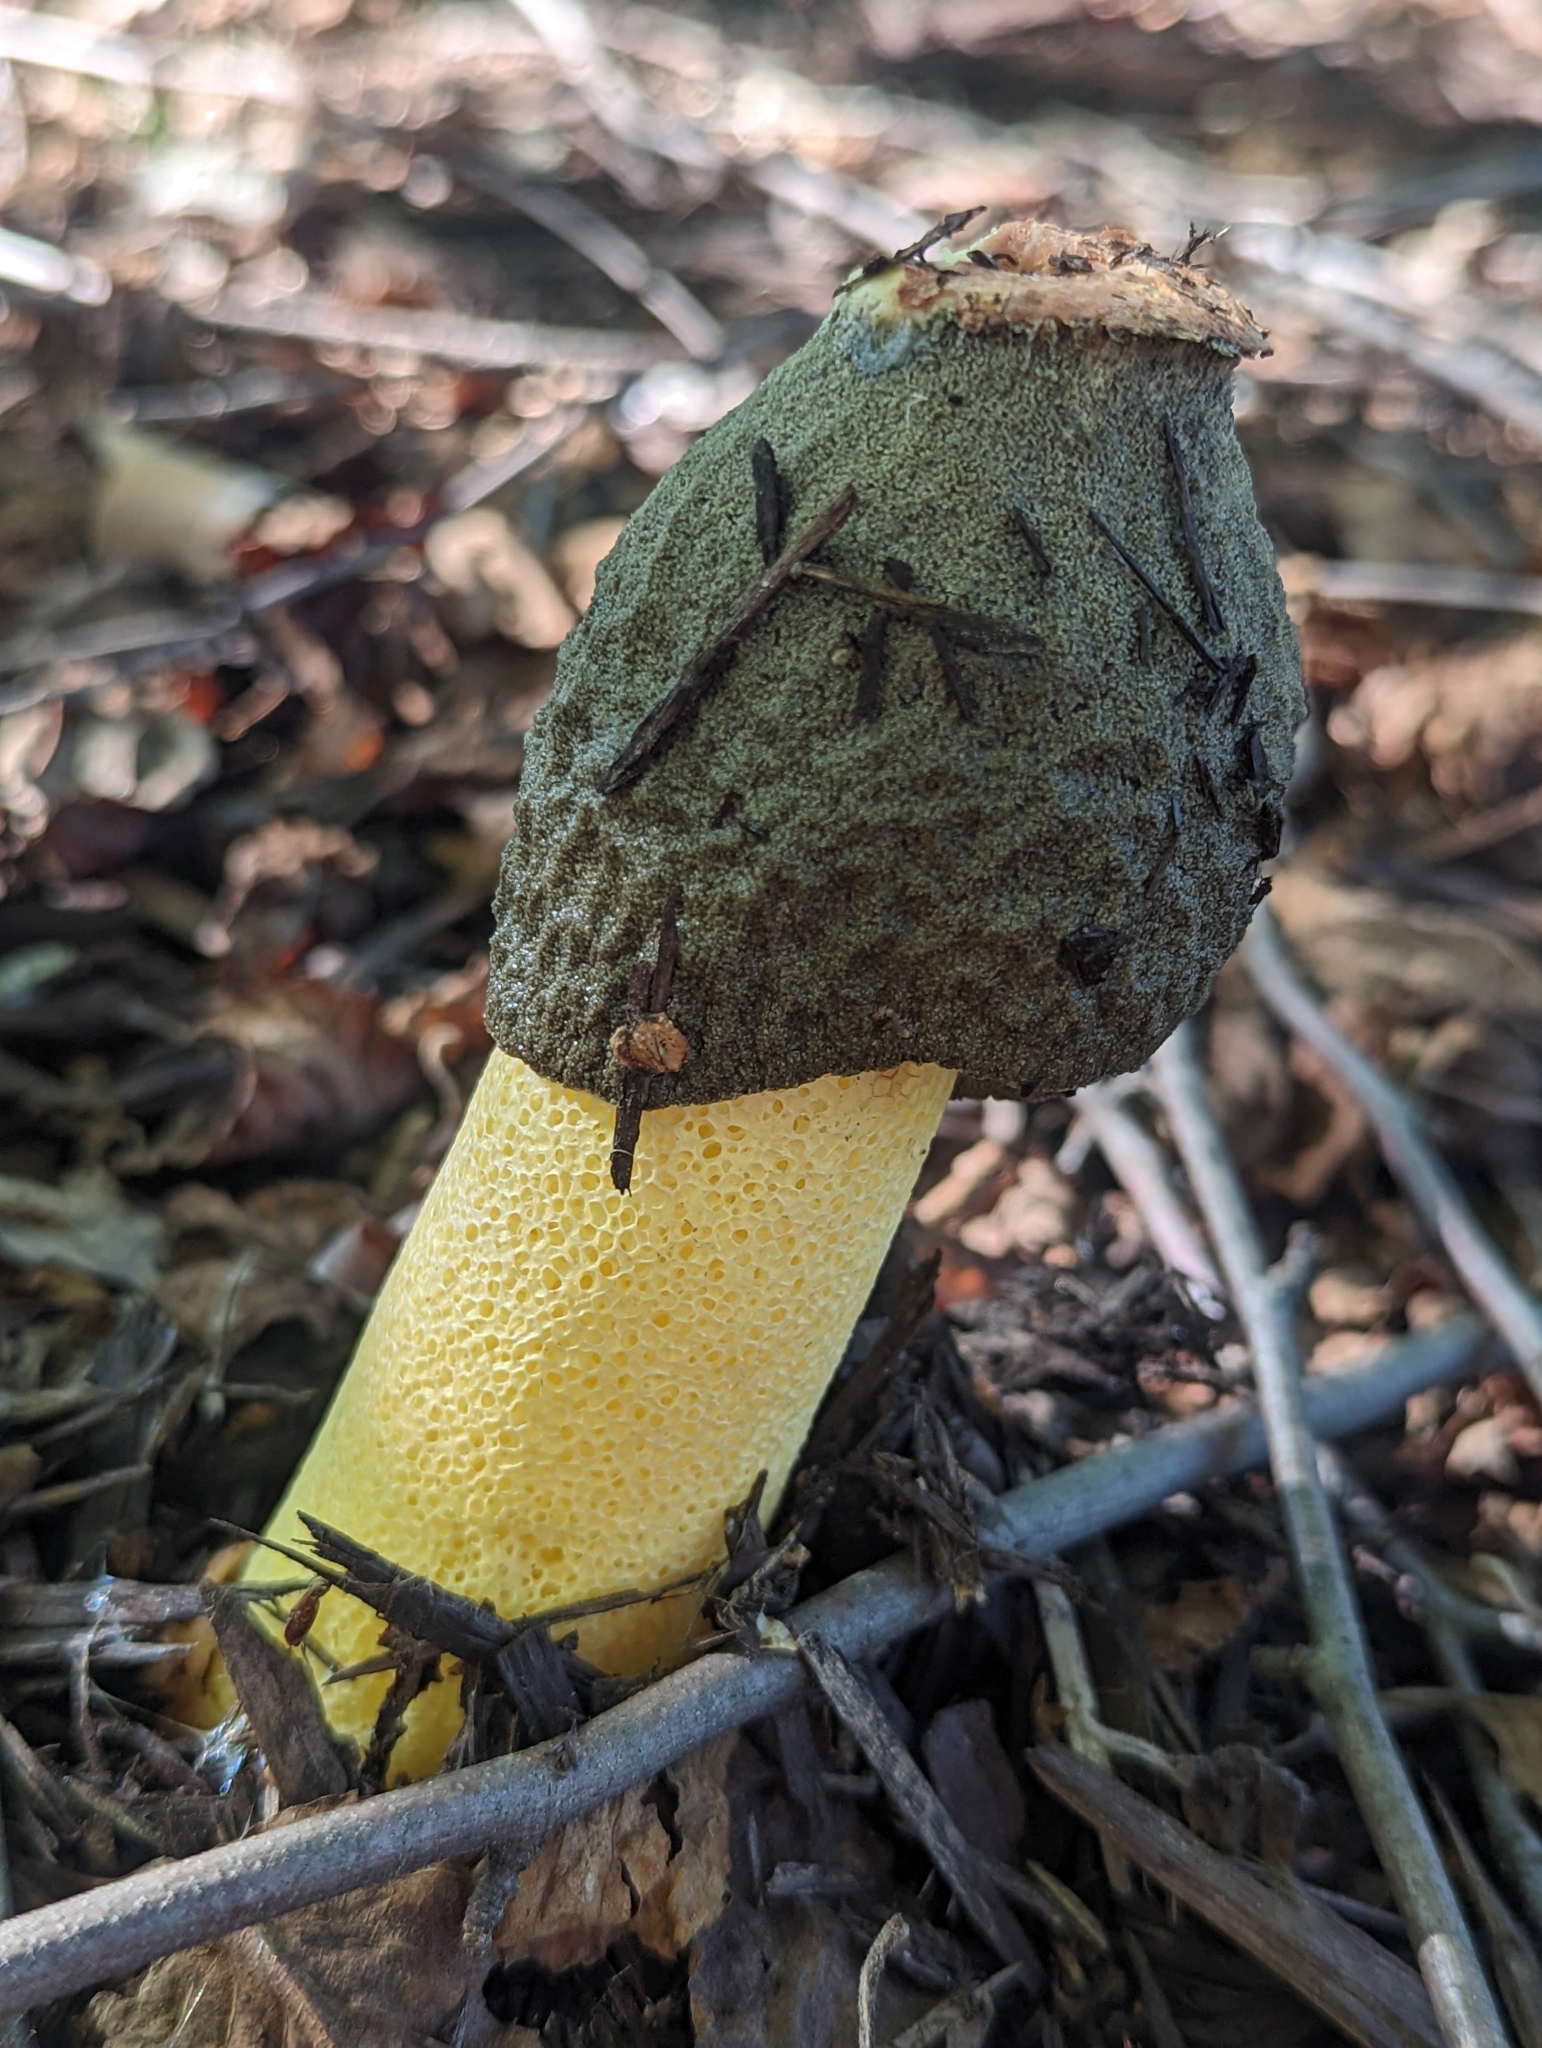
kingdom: Fungi
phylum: Basidiomycota
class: Agaricomycetes
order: Phallales
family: Phallaceae
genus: Phallus
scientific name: Phallus ravenelii
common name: Ravenel's stinkhorn
